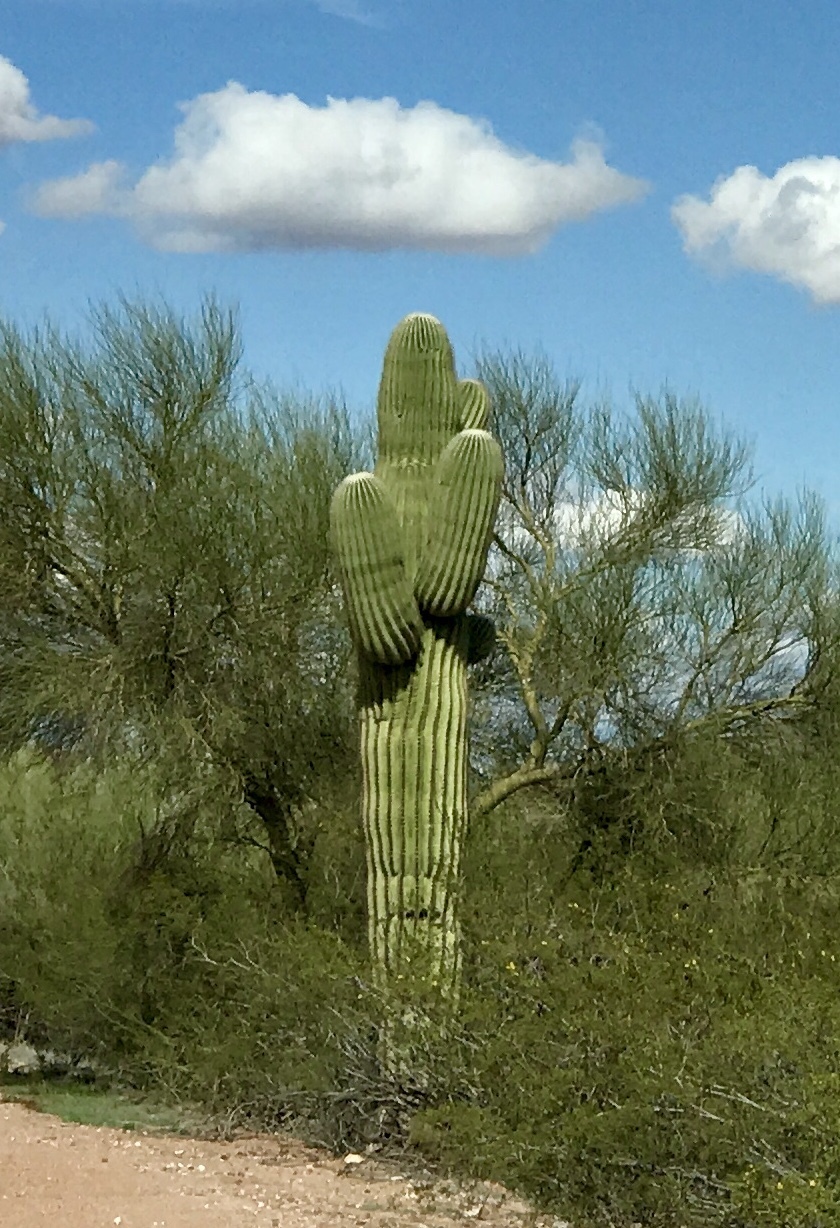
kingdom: Plantae
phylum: Tracheophyta
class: Magnoliopsida
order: Caryophyllales
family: Cactaceae
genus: Carnegiea
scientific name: Carnegiea gigantea
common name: Saguaro
